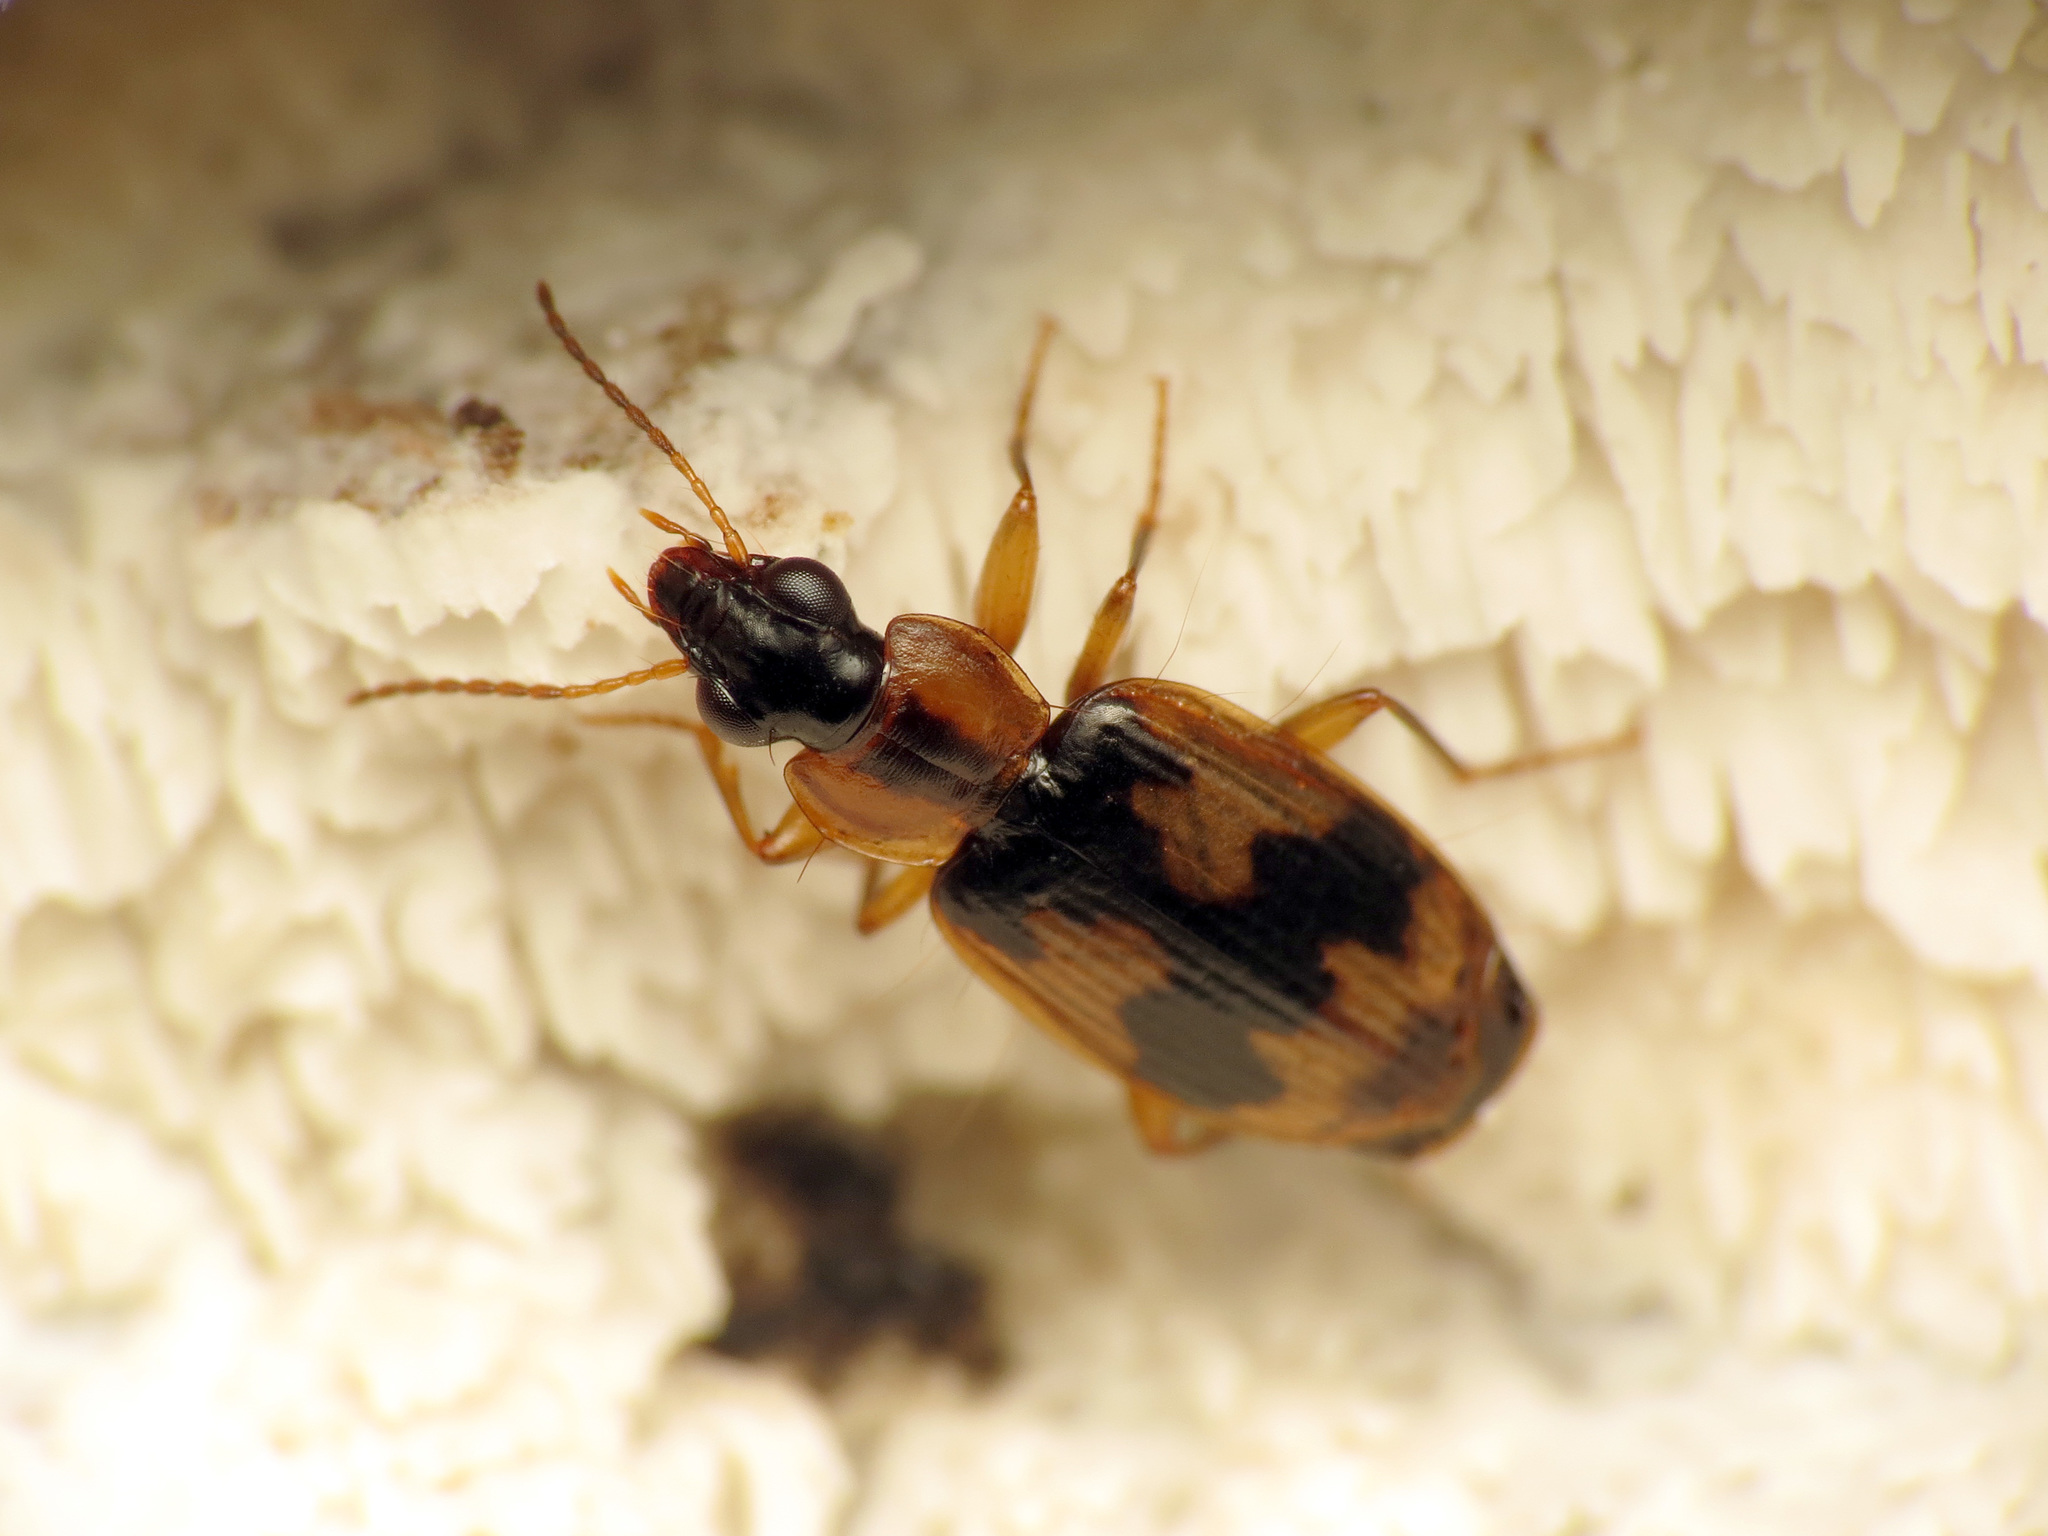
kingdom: Animalia
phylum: Arthropoda
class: Insecta
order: Coleoptera
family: Carabidae
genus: Phloeoxena
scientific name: Phloeoxena signata
